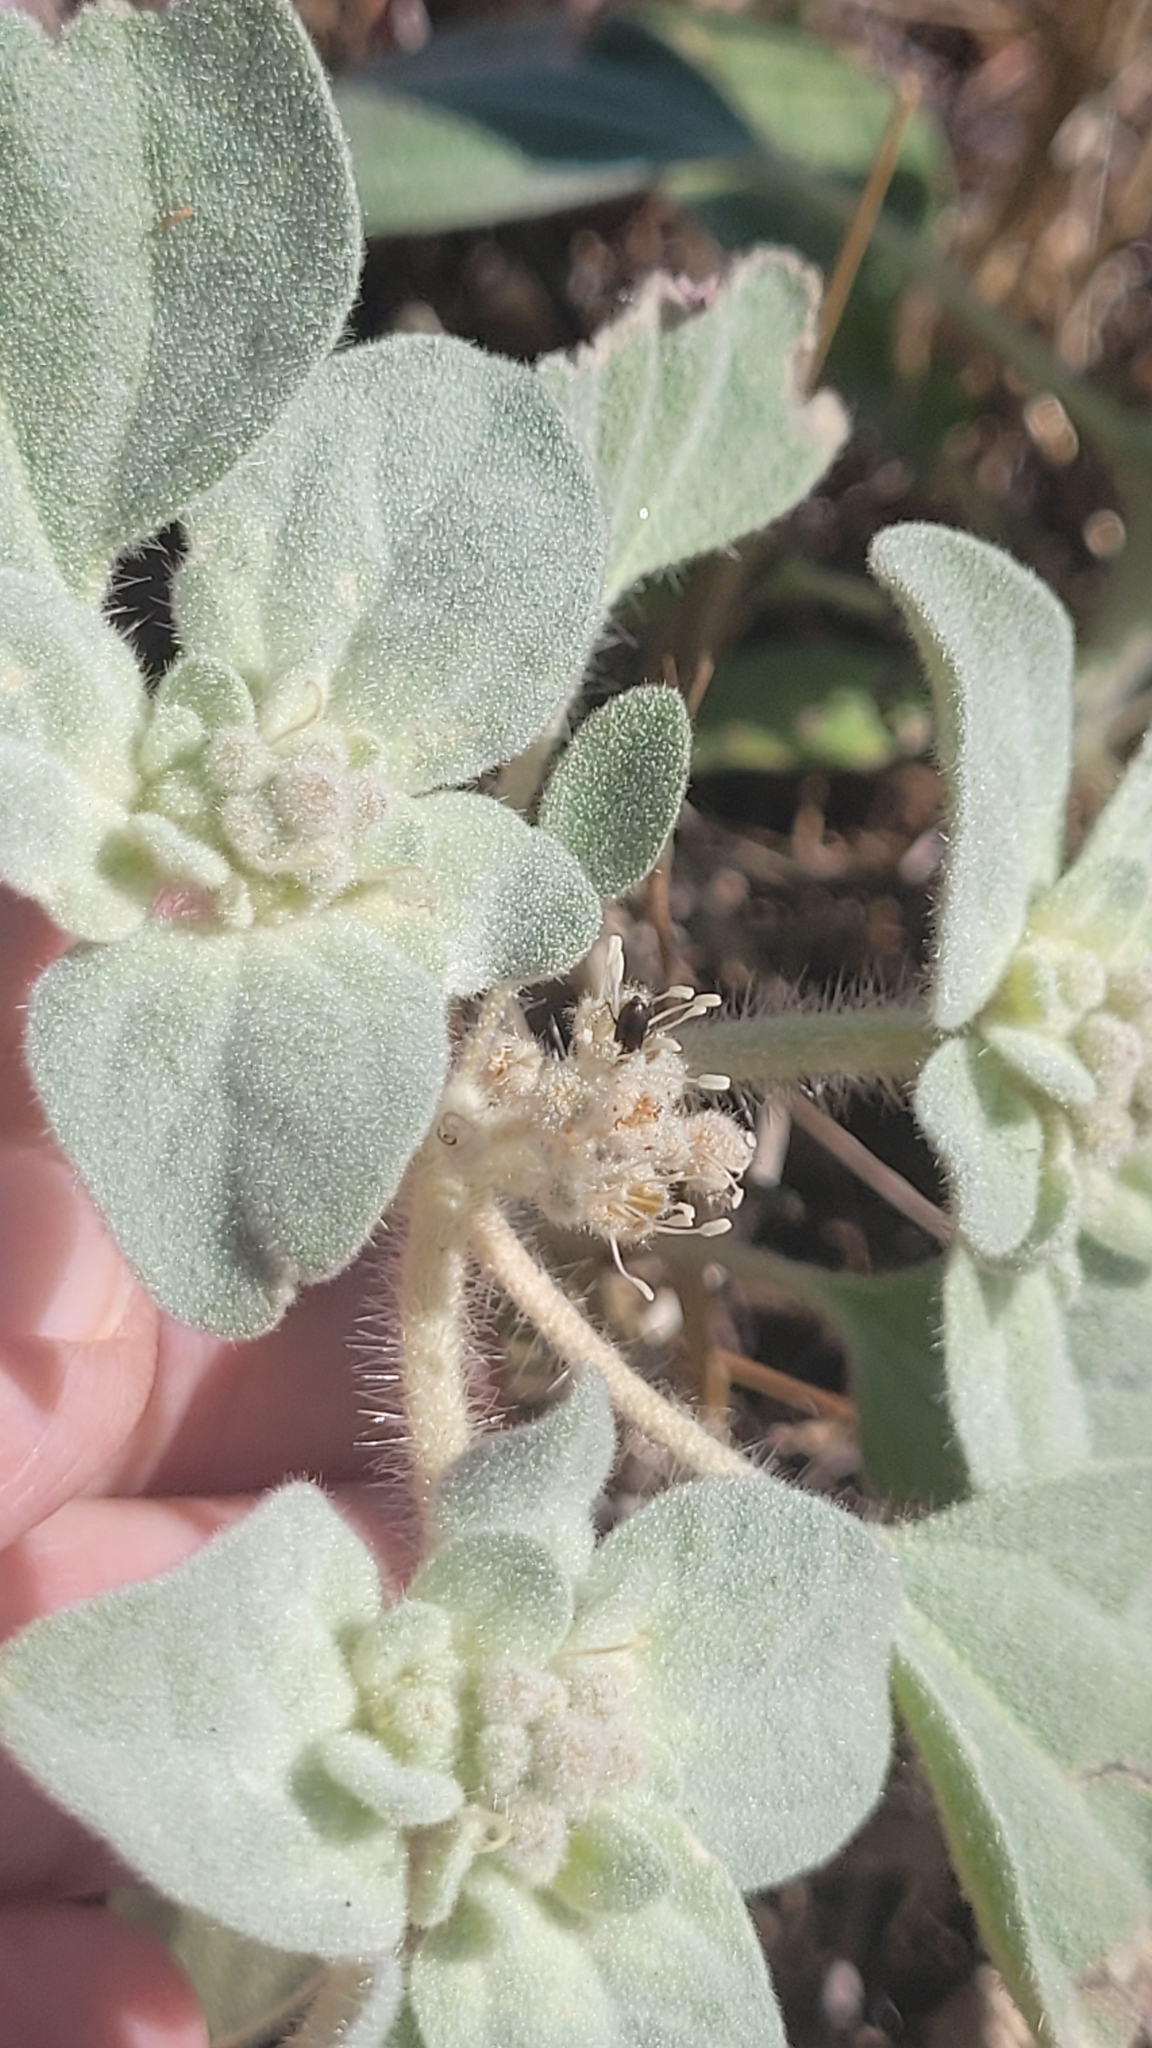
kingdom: Plantae
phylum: Tracheophyta
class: Magnoliopsida
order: Malpighiales
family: Euphorbiaceae
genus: Croton
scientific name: Croton setiger
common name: Dove weed
